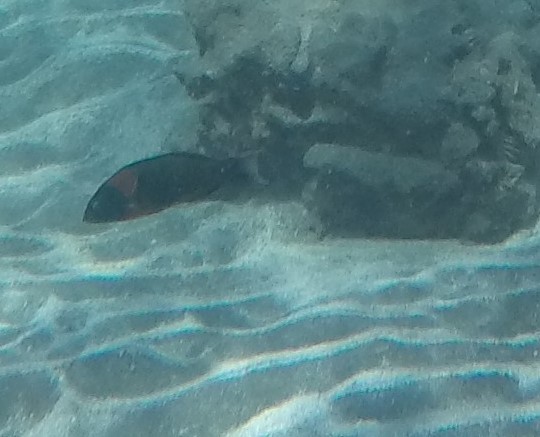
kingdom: Animalia
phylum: Chordata
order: Perciformes
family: Labridae
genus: Thalassoma
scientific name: Thalassoma duperrey
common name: Saddle wrasse
